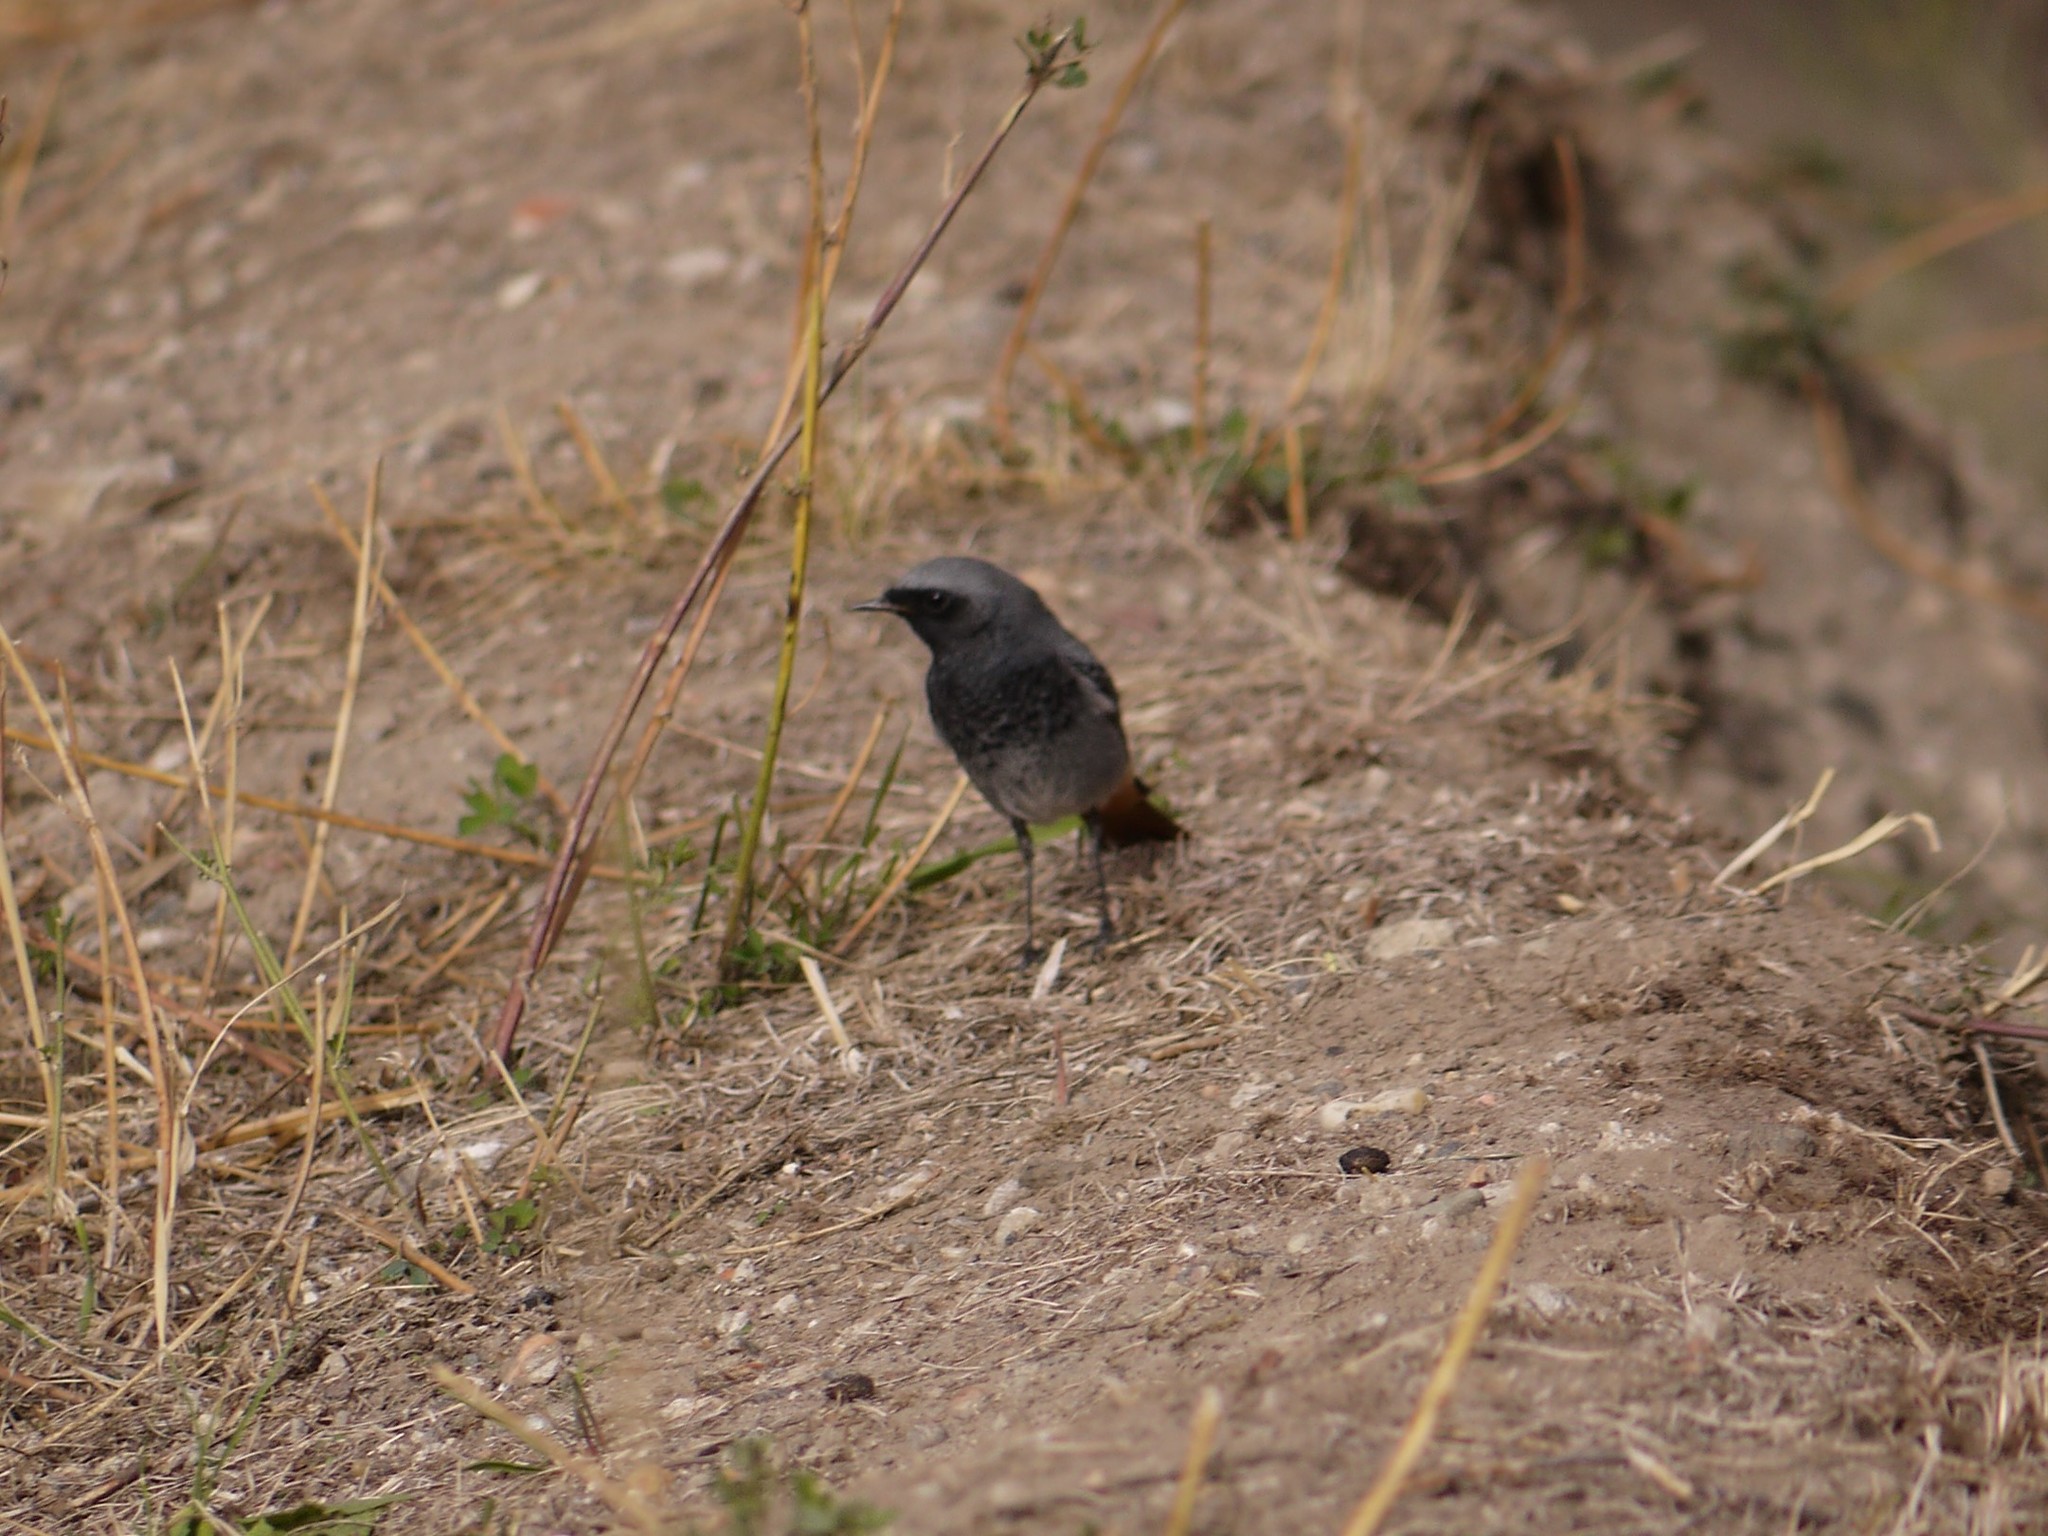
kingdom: Animalia
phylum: Chordata
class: Aves
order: Passeriformes
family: Muscicapidae
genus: Phoenicurus
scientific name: Phoenicurus ochruros
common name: Black redstart
